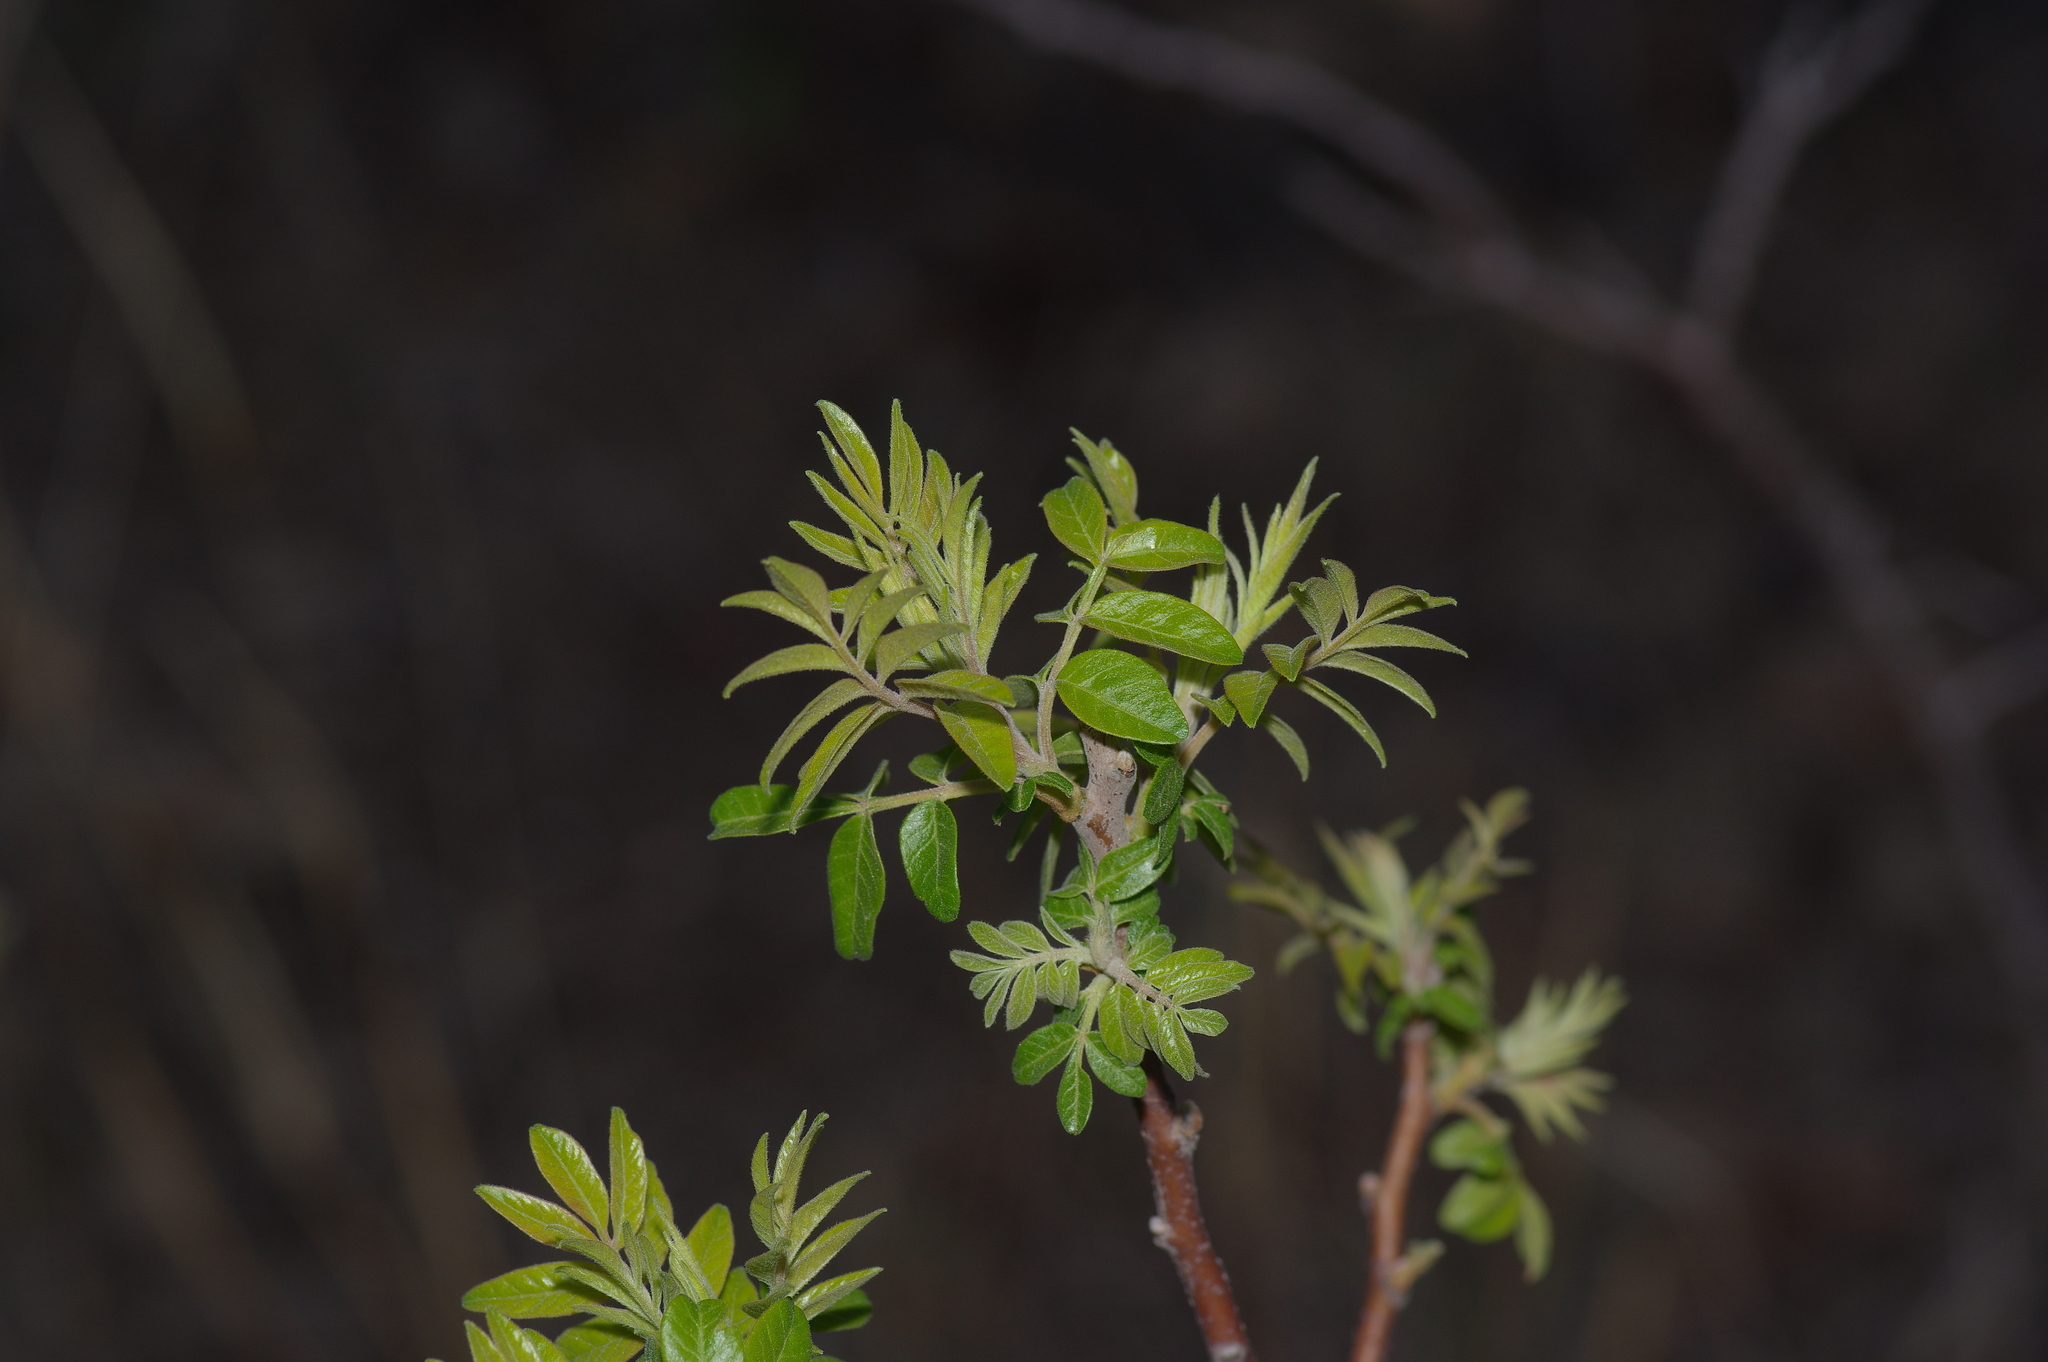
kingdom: Plantae
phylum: Tracheophyta
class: Magnoliopsida
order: Sapindales
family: Anacardiaceae
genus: Rhus
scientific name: Rhus lanceolata
